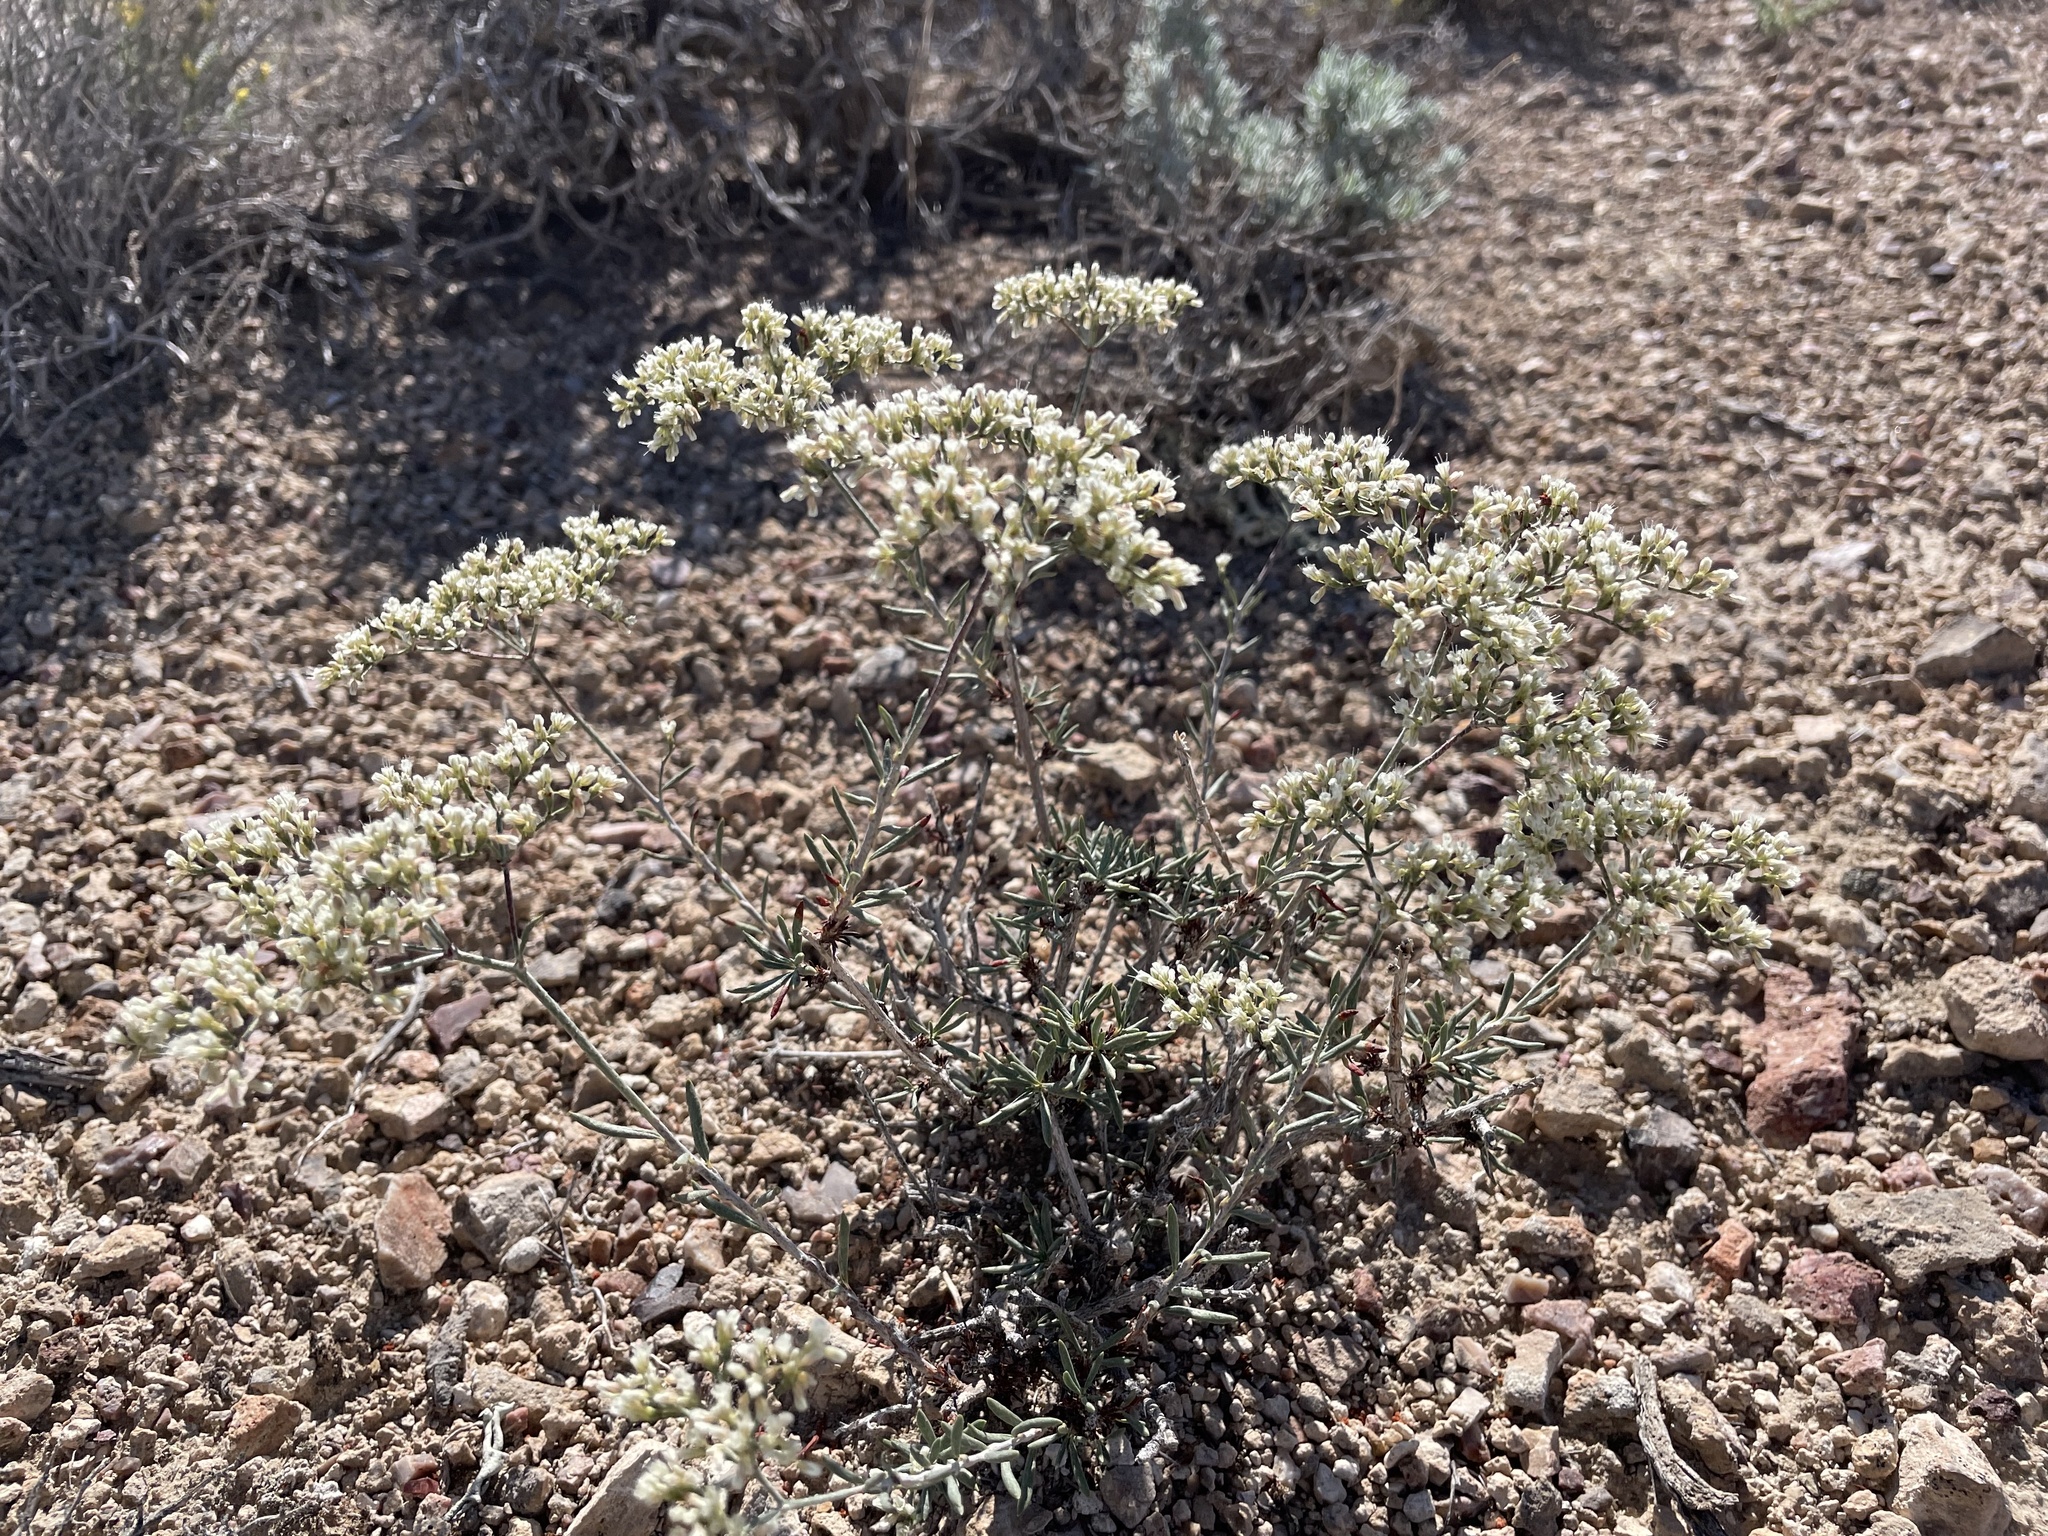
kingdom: Plantae
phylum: Tracheophyta
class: Magnoliopsida
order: Caryophyllales
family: Polygonaceae
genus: Eriogonum
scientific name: Eriogonum microtheca
